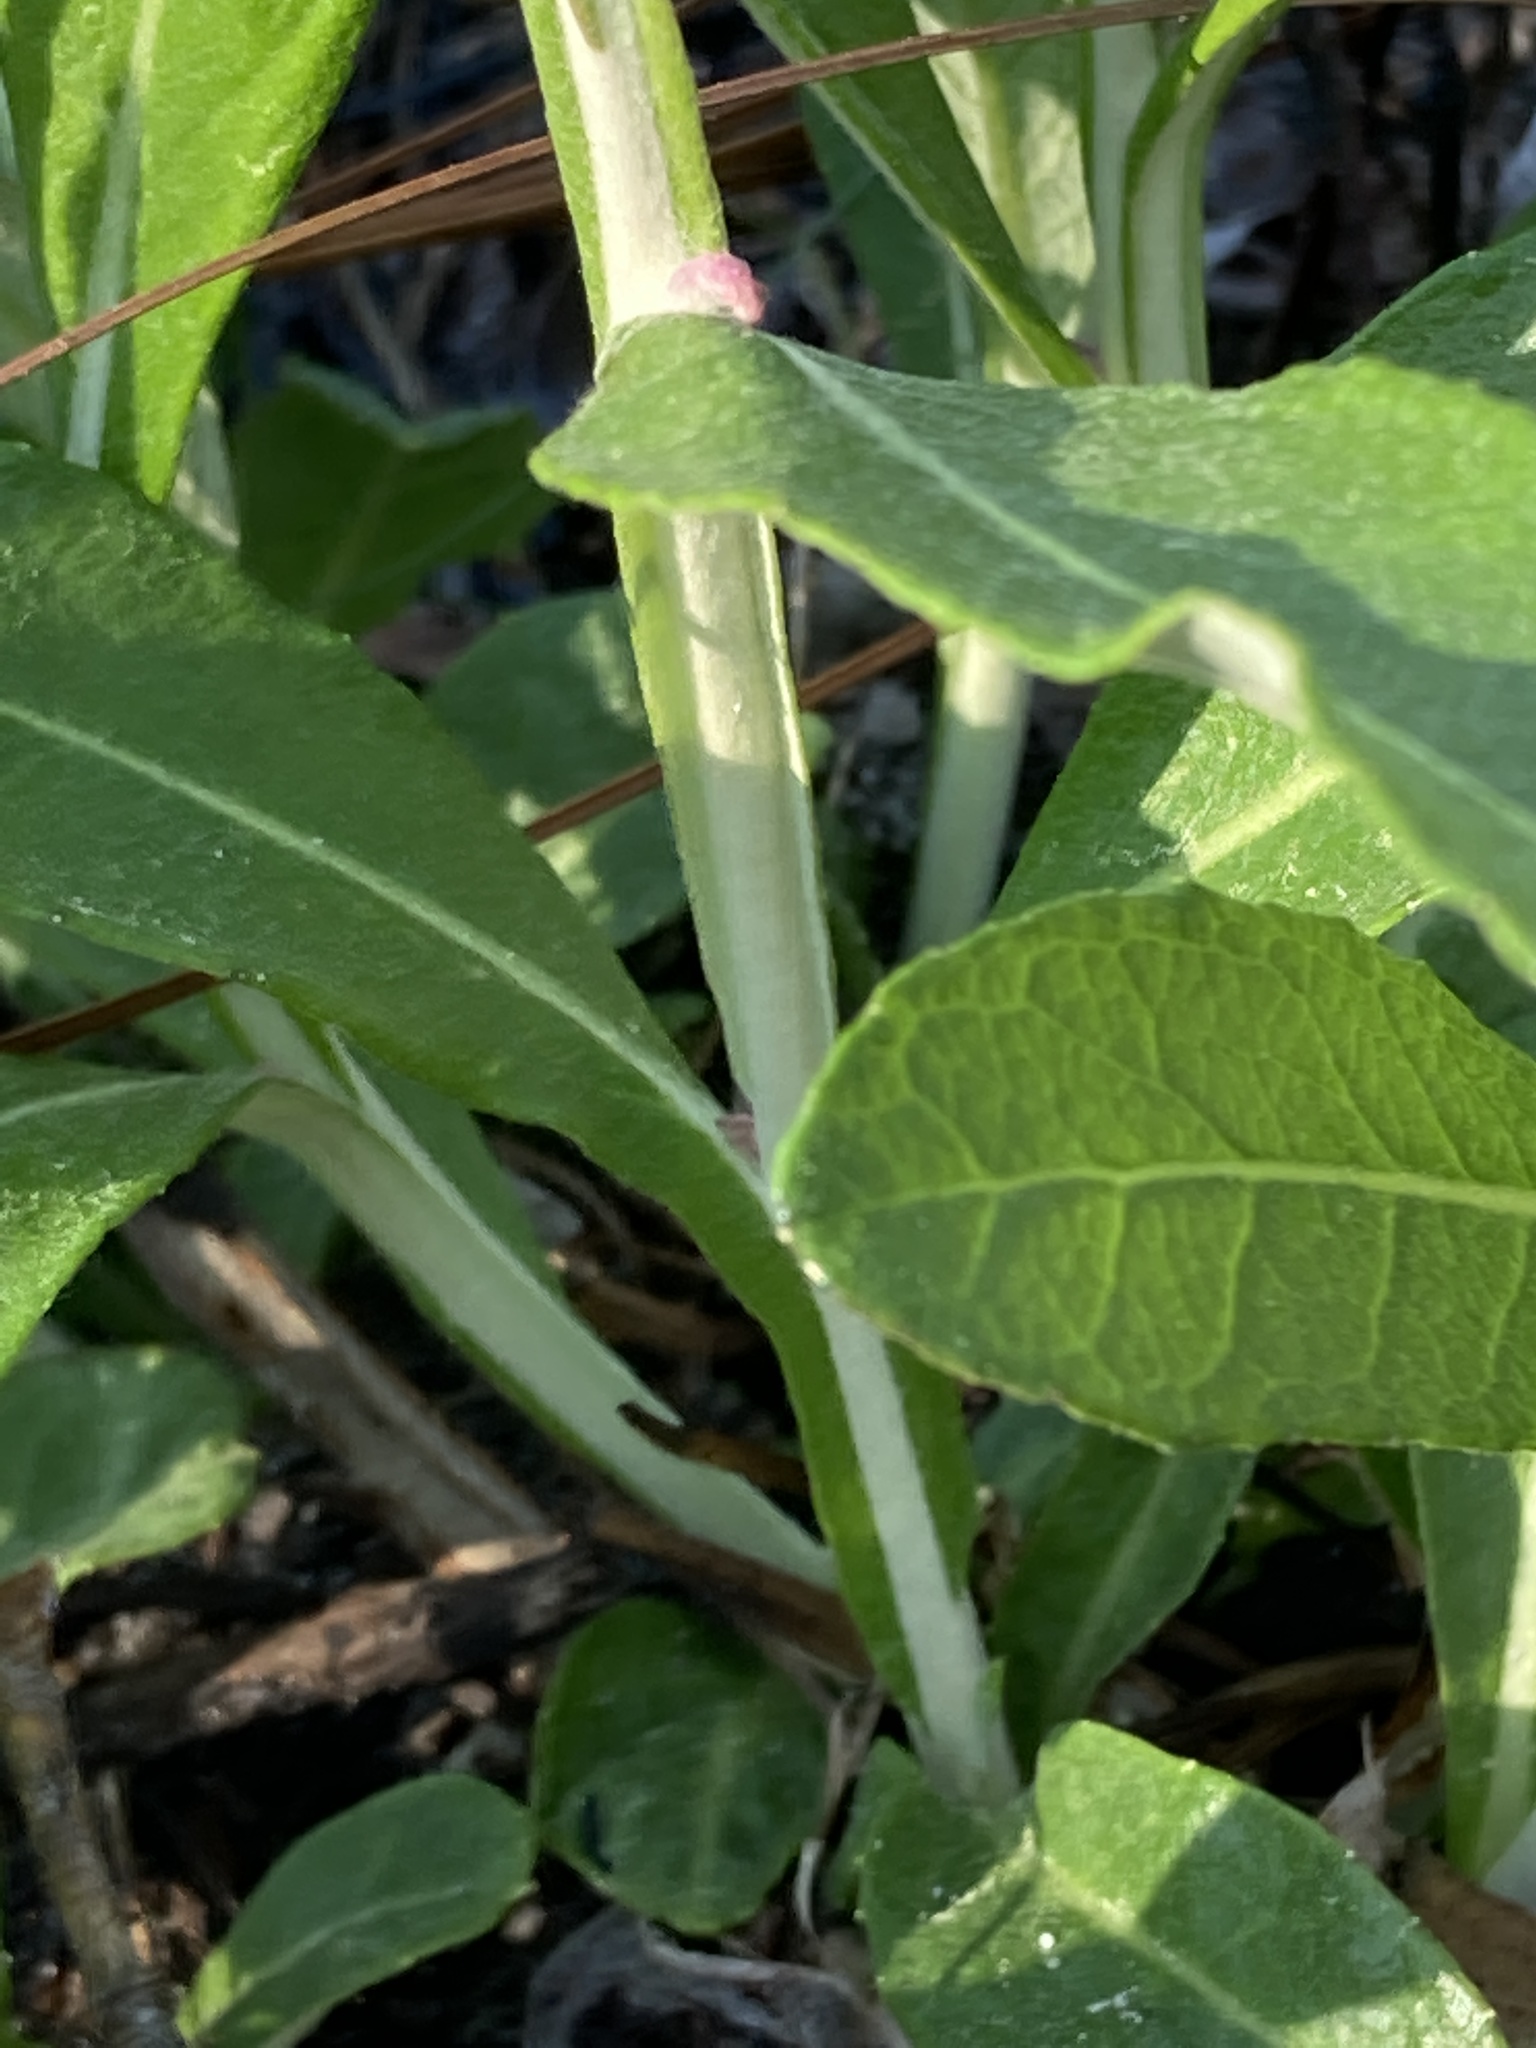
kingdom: Plantae
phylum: Tracheophyta
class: Magnoliopsida
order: Asterales
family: Asteraceae
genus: Pterocaulon
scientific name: Pterocaulon pycnostachyum
